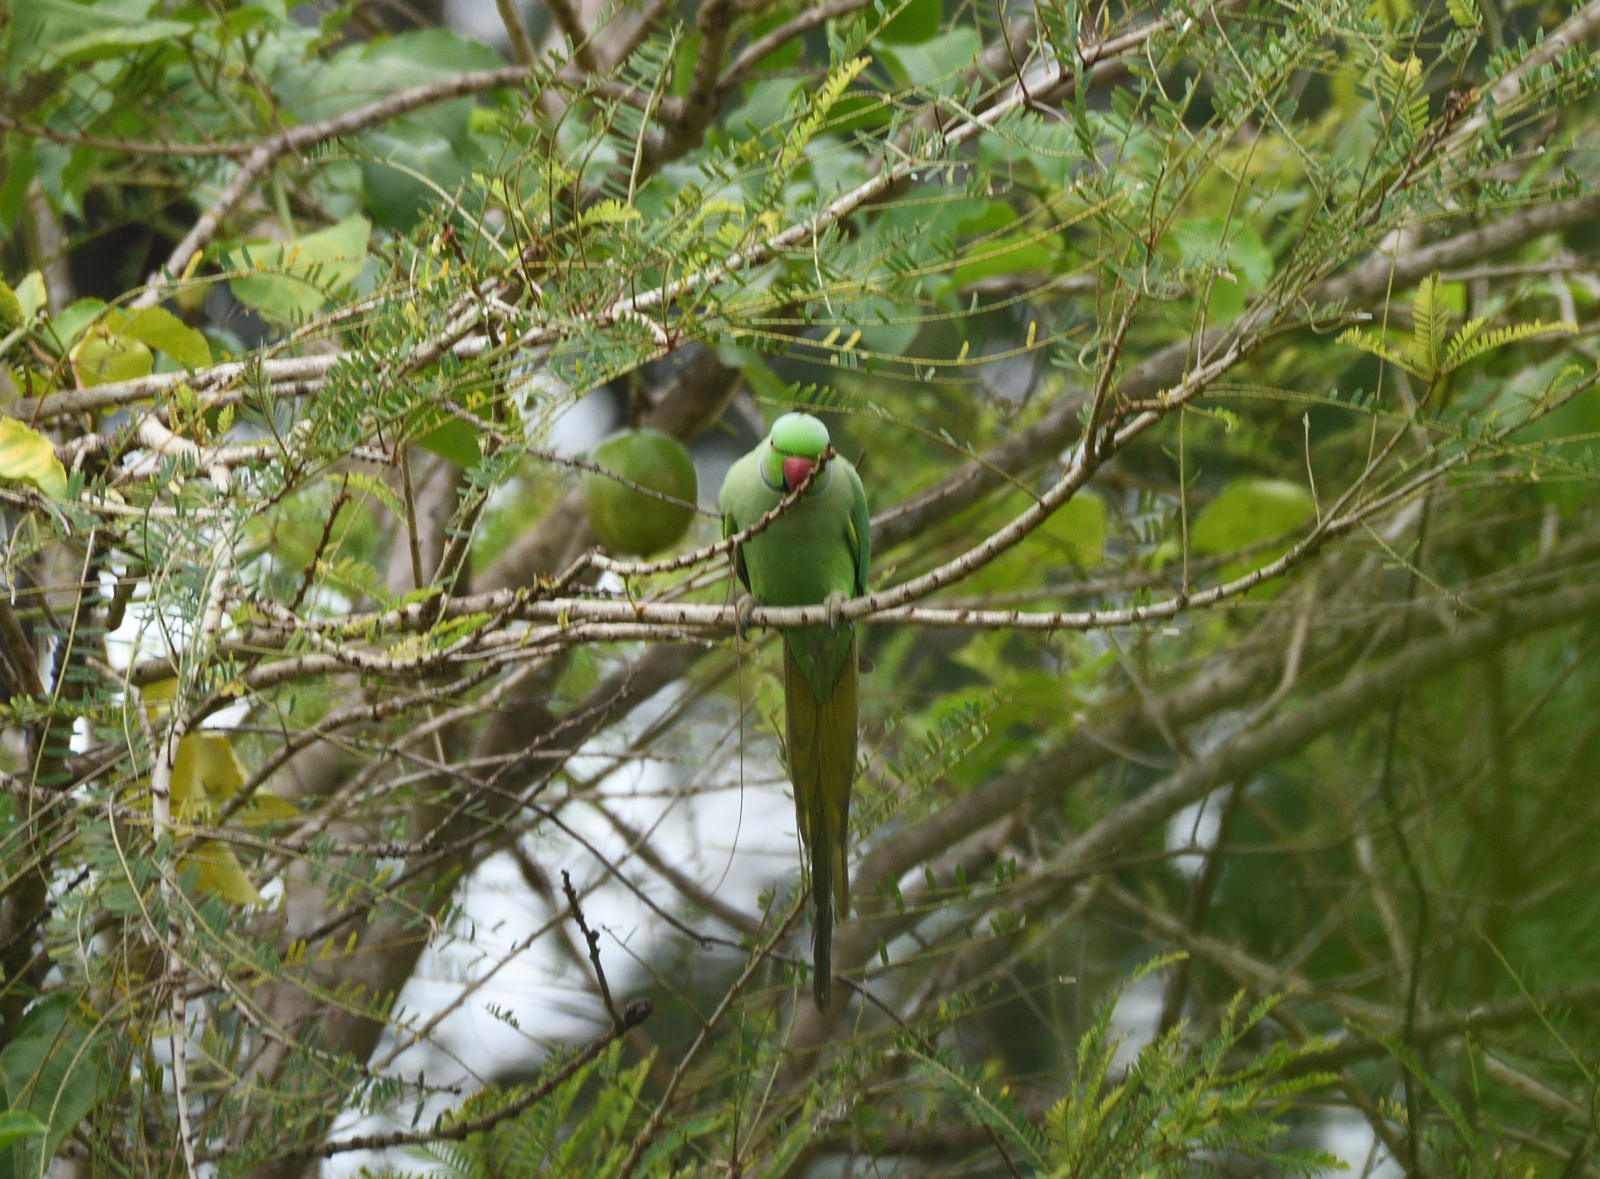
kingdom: Animalia
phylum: Chordata
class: Aves
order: Psittaciformes
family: Psittacidae
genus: Psittacula
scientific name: Psittacula krameri
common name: Rose-ringed parakeet
